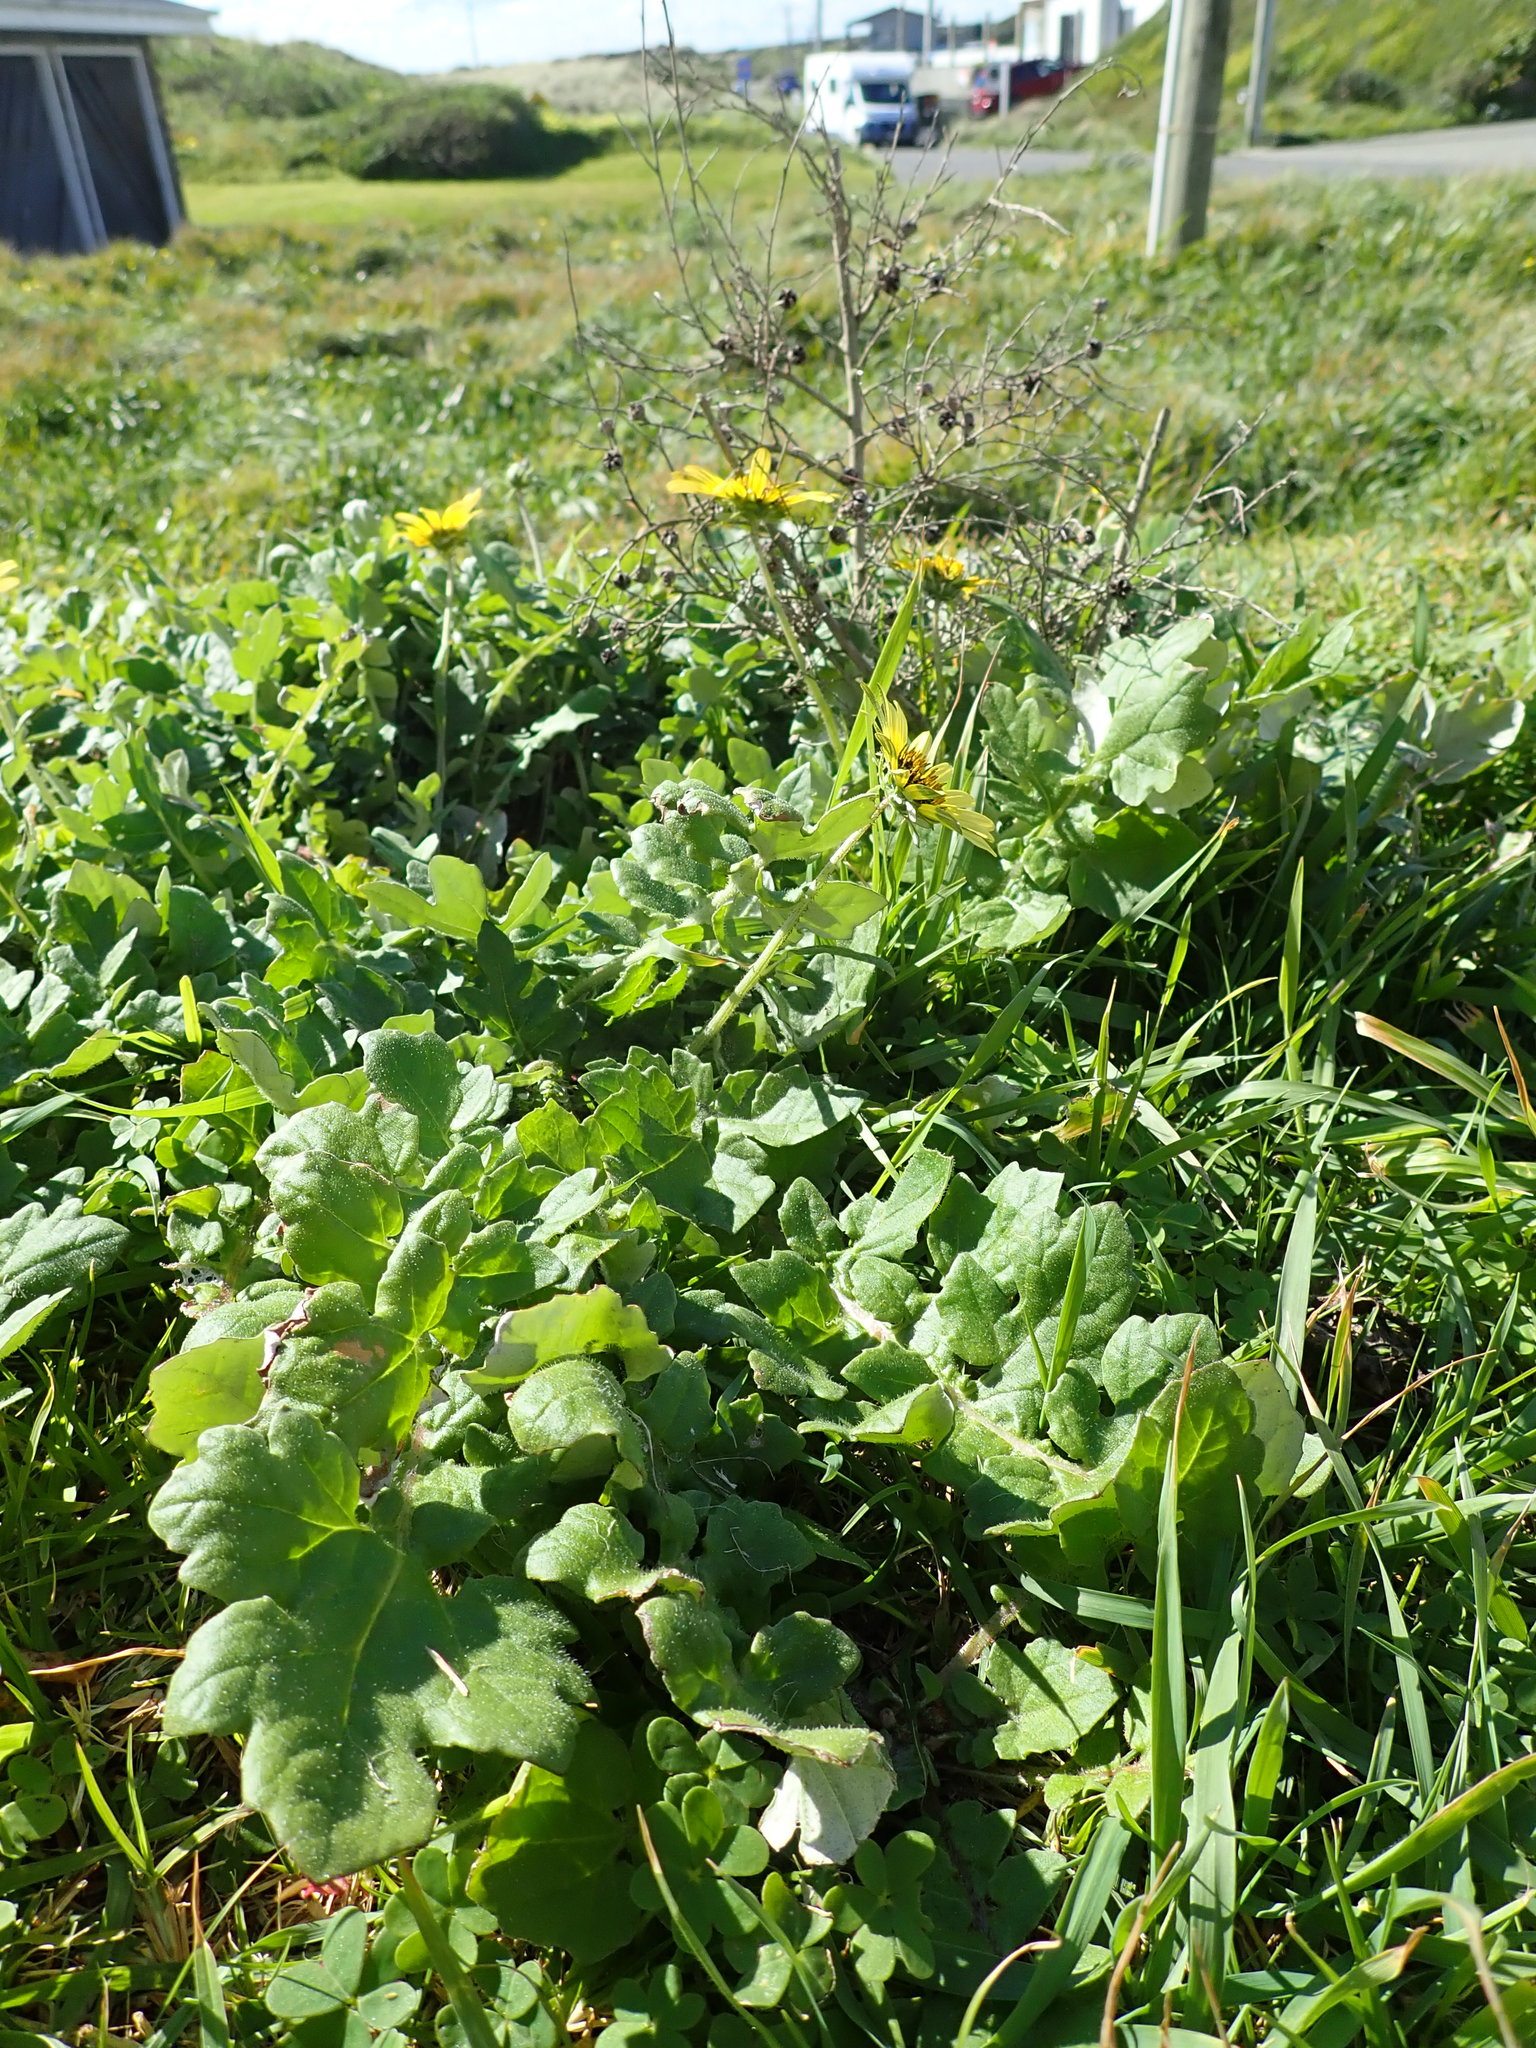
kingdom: Plantae
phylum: Tracheophyta
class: Magnoliopsida
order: Asterales
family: Asteraceae
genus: Arctotheca
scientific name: Arctotheca calendula
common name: Capeweed
